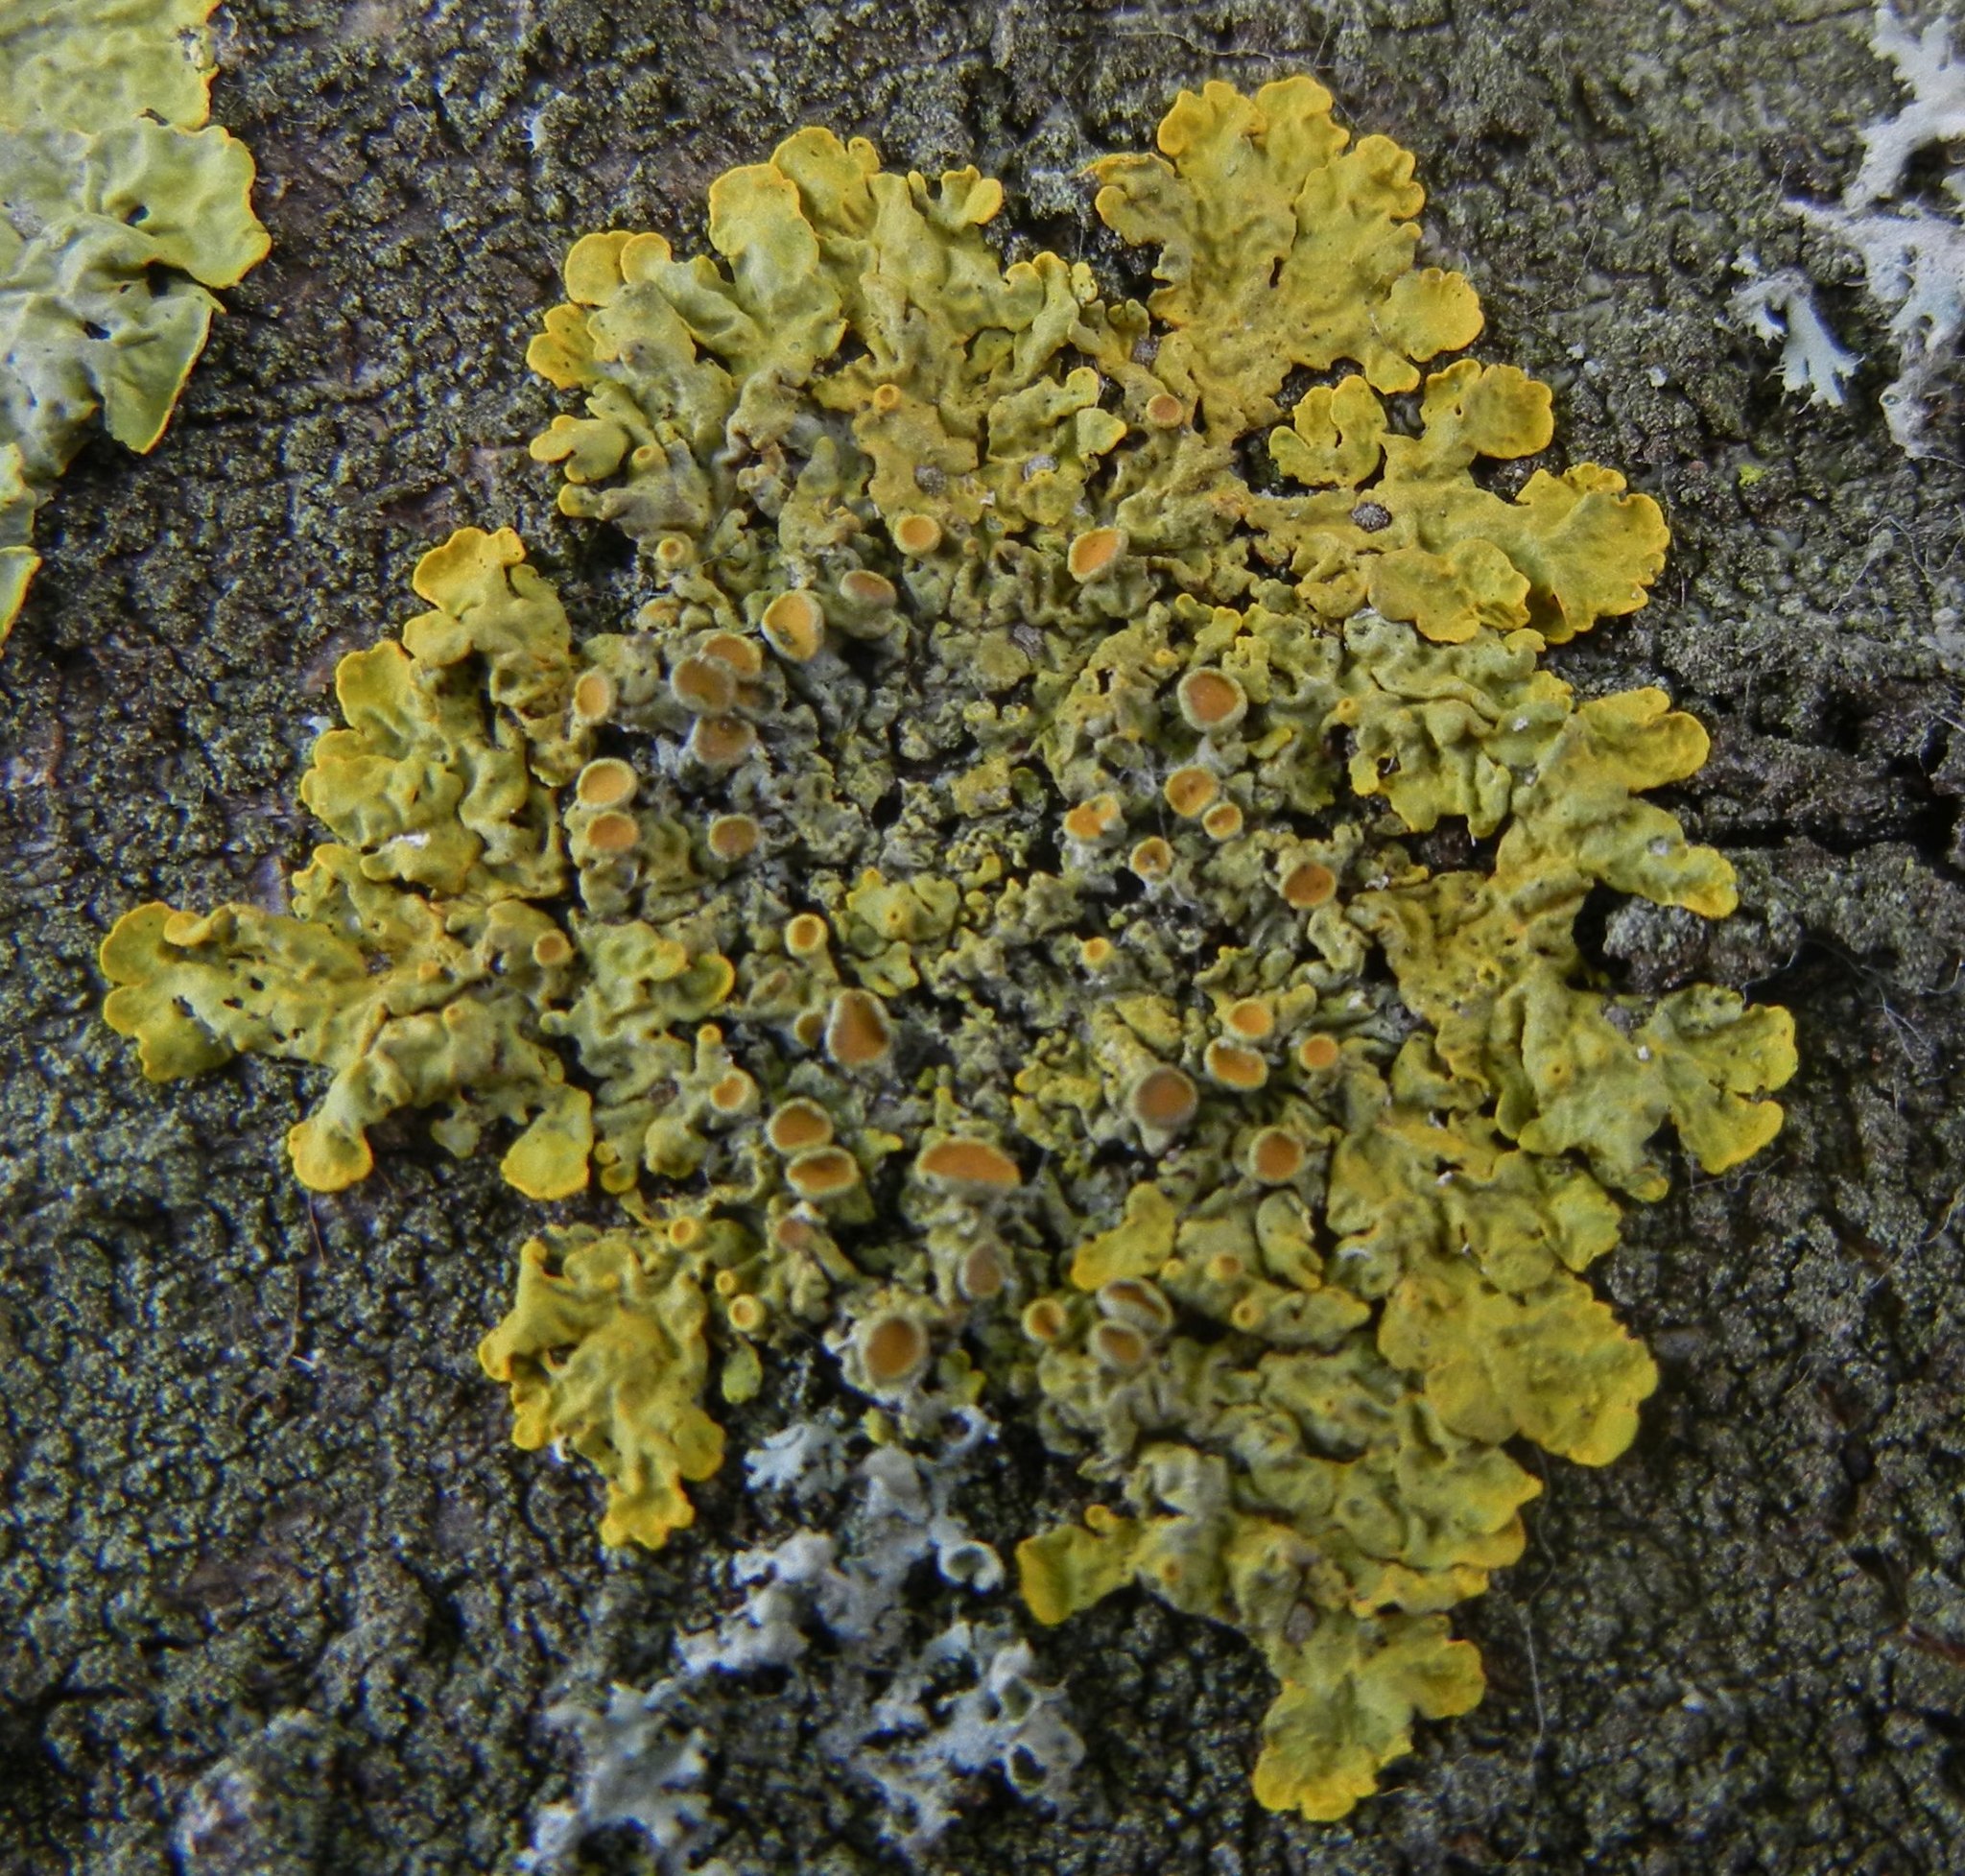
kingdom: Fungi
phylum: Ascomycota
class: Lecanoromycetes
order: Teloschistales
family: Teloschistaceae
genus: Xanthoria
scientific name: Xanthoria parietina
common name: Common orange lichen
